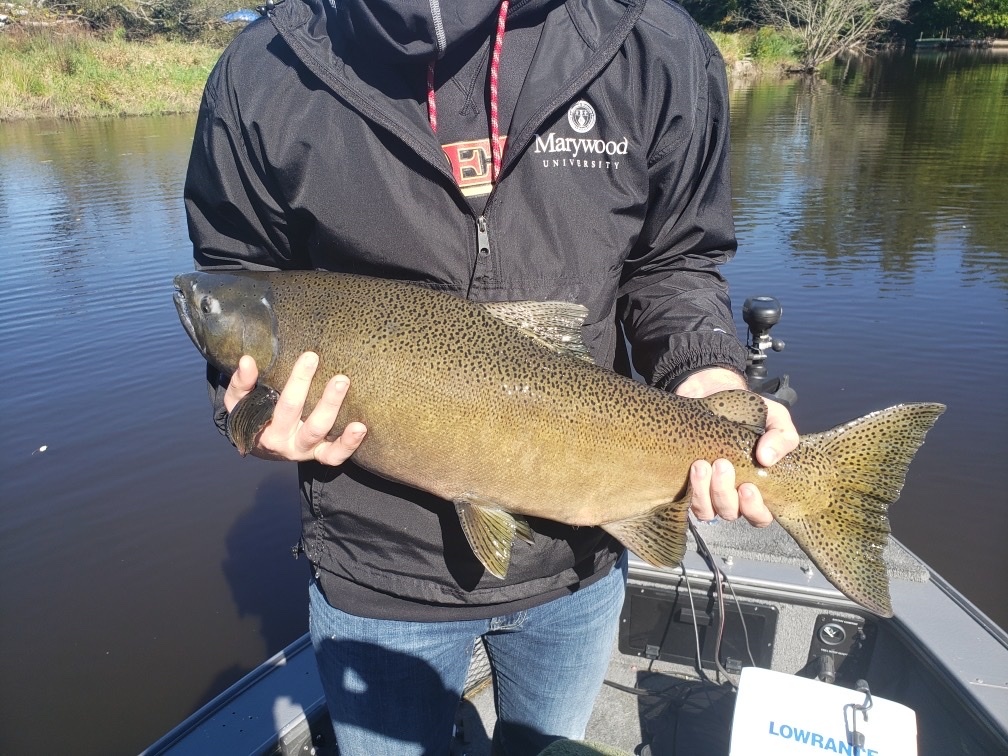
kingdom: Animalia
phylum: Chordata
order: Salmoniformes
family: Salmonidae
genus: Oncorhynchus
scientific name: Oncorhynchus tshawytscha
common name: Chinook salmon
